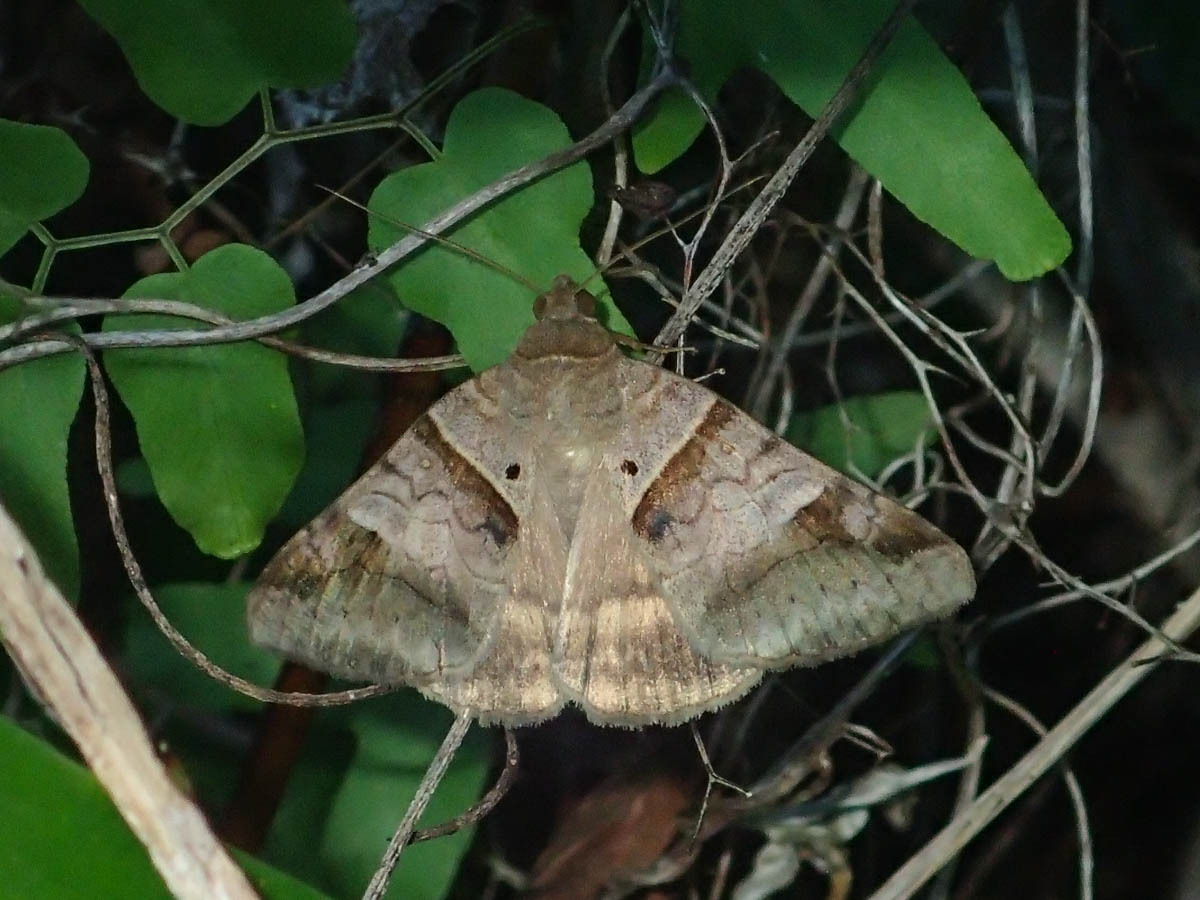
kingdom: Animalia
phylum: Arthropoda
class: Insecta
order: Lepidoptera
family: Erebidae
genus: Mocis
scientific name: Mocis undata
